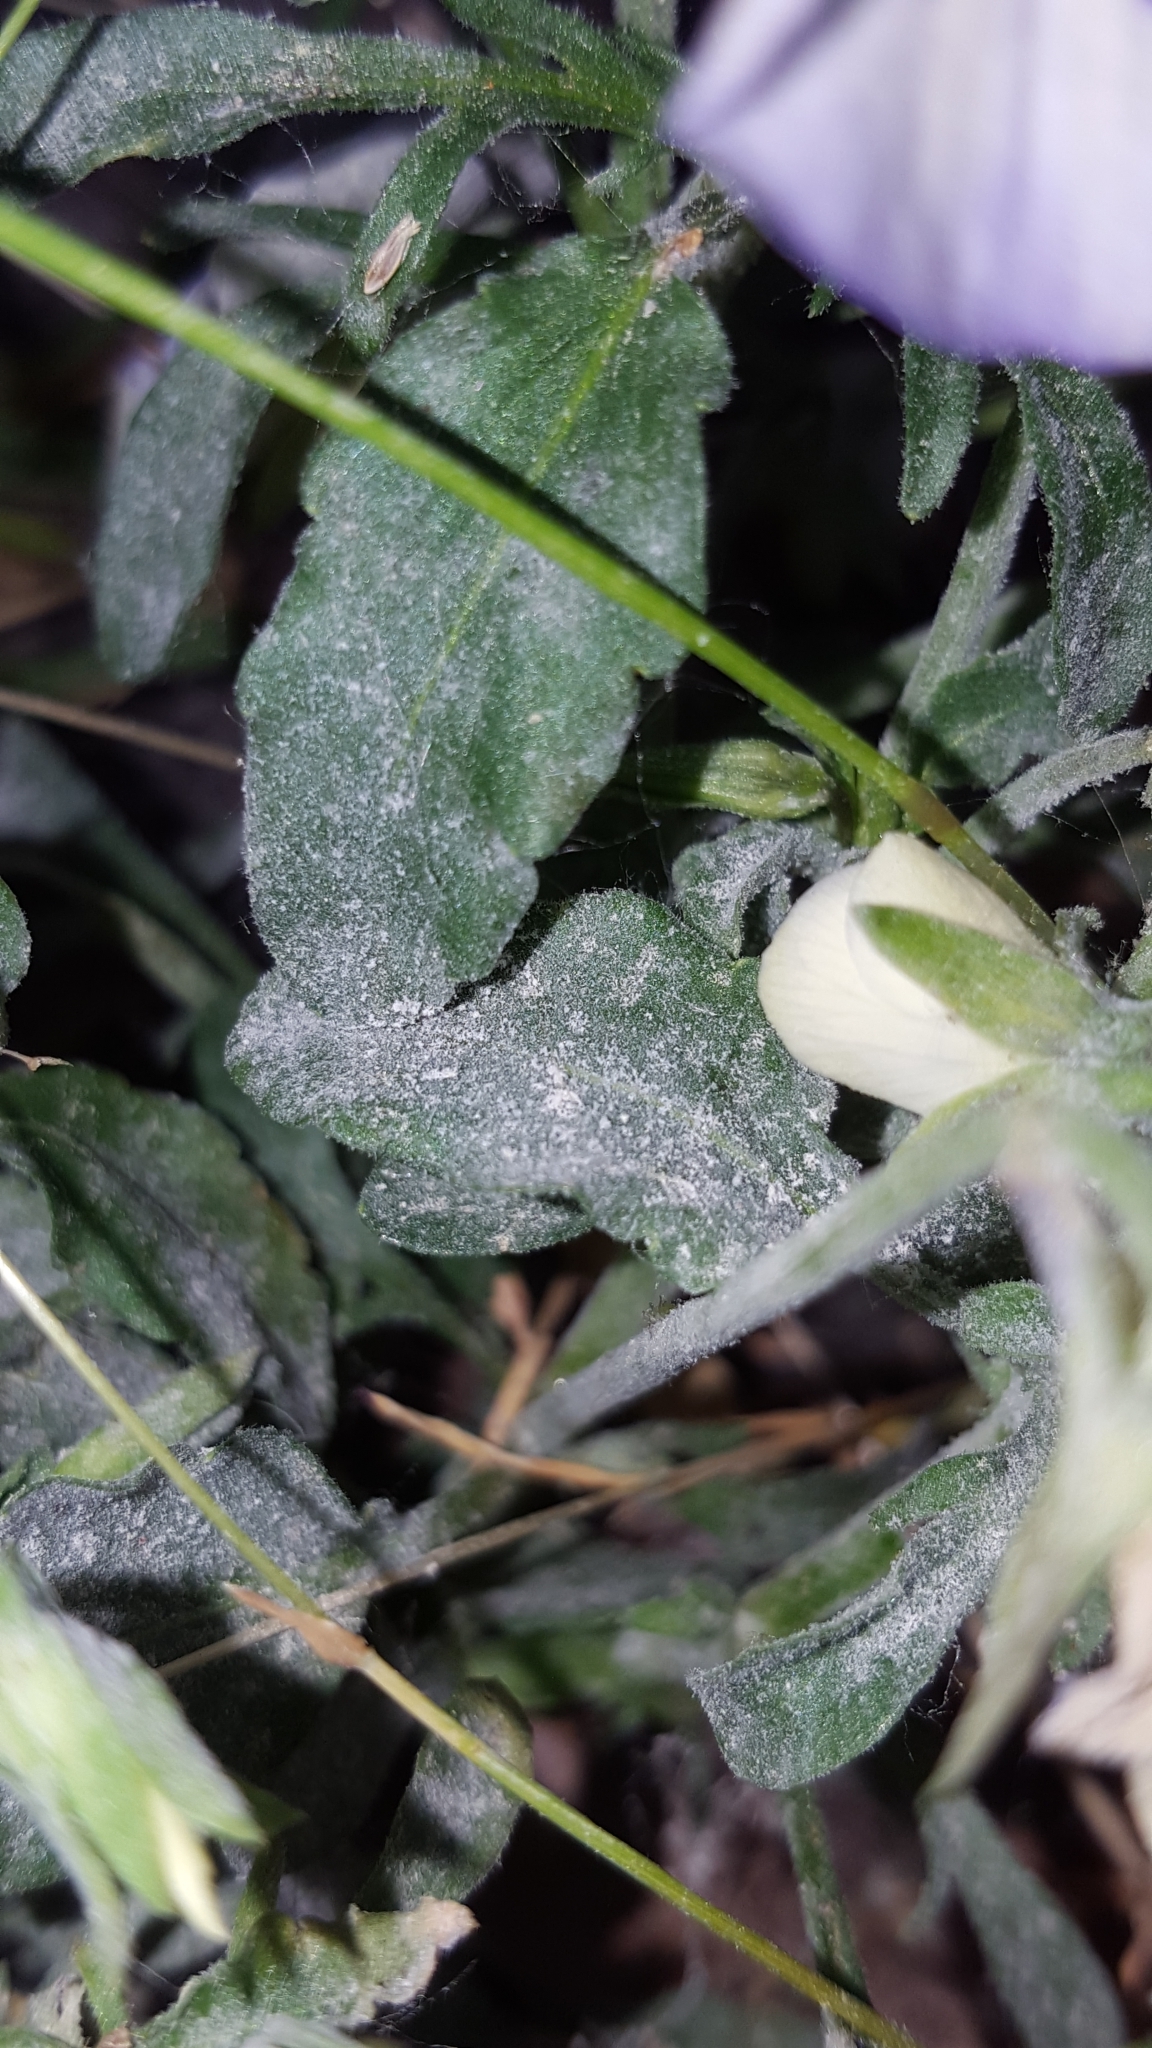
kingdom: Fungi
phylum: Ascomycota
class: Leotiomycetes
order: Helotiales
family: Erysiphaceae
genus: Golovinomyces
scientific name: Golovinomyces orontii
